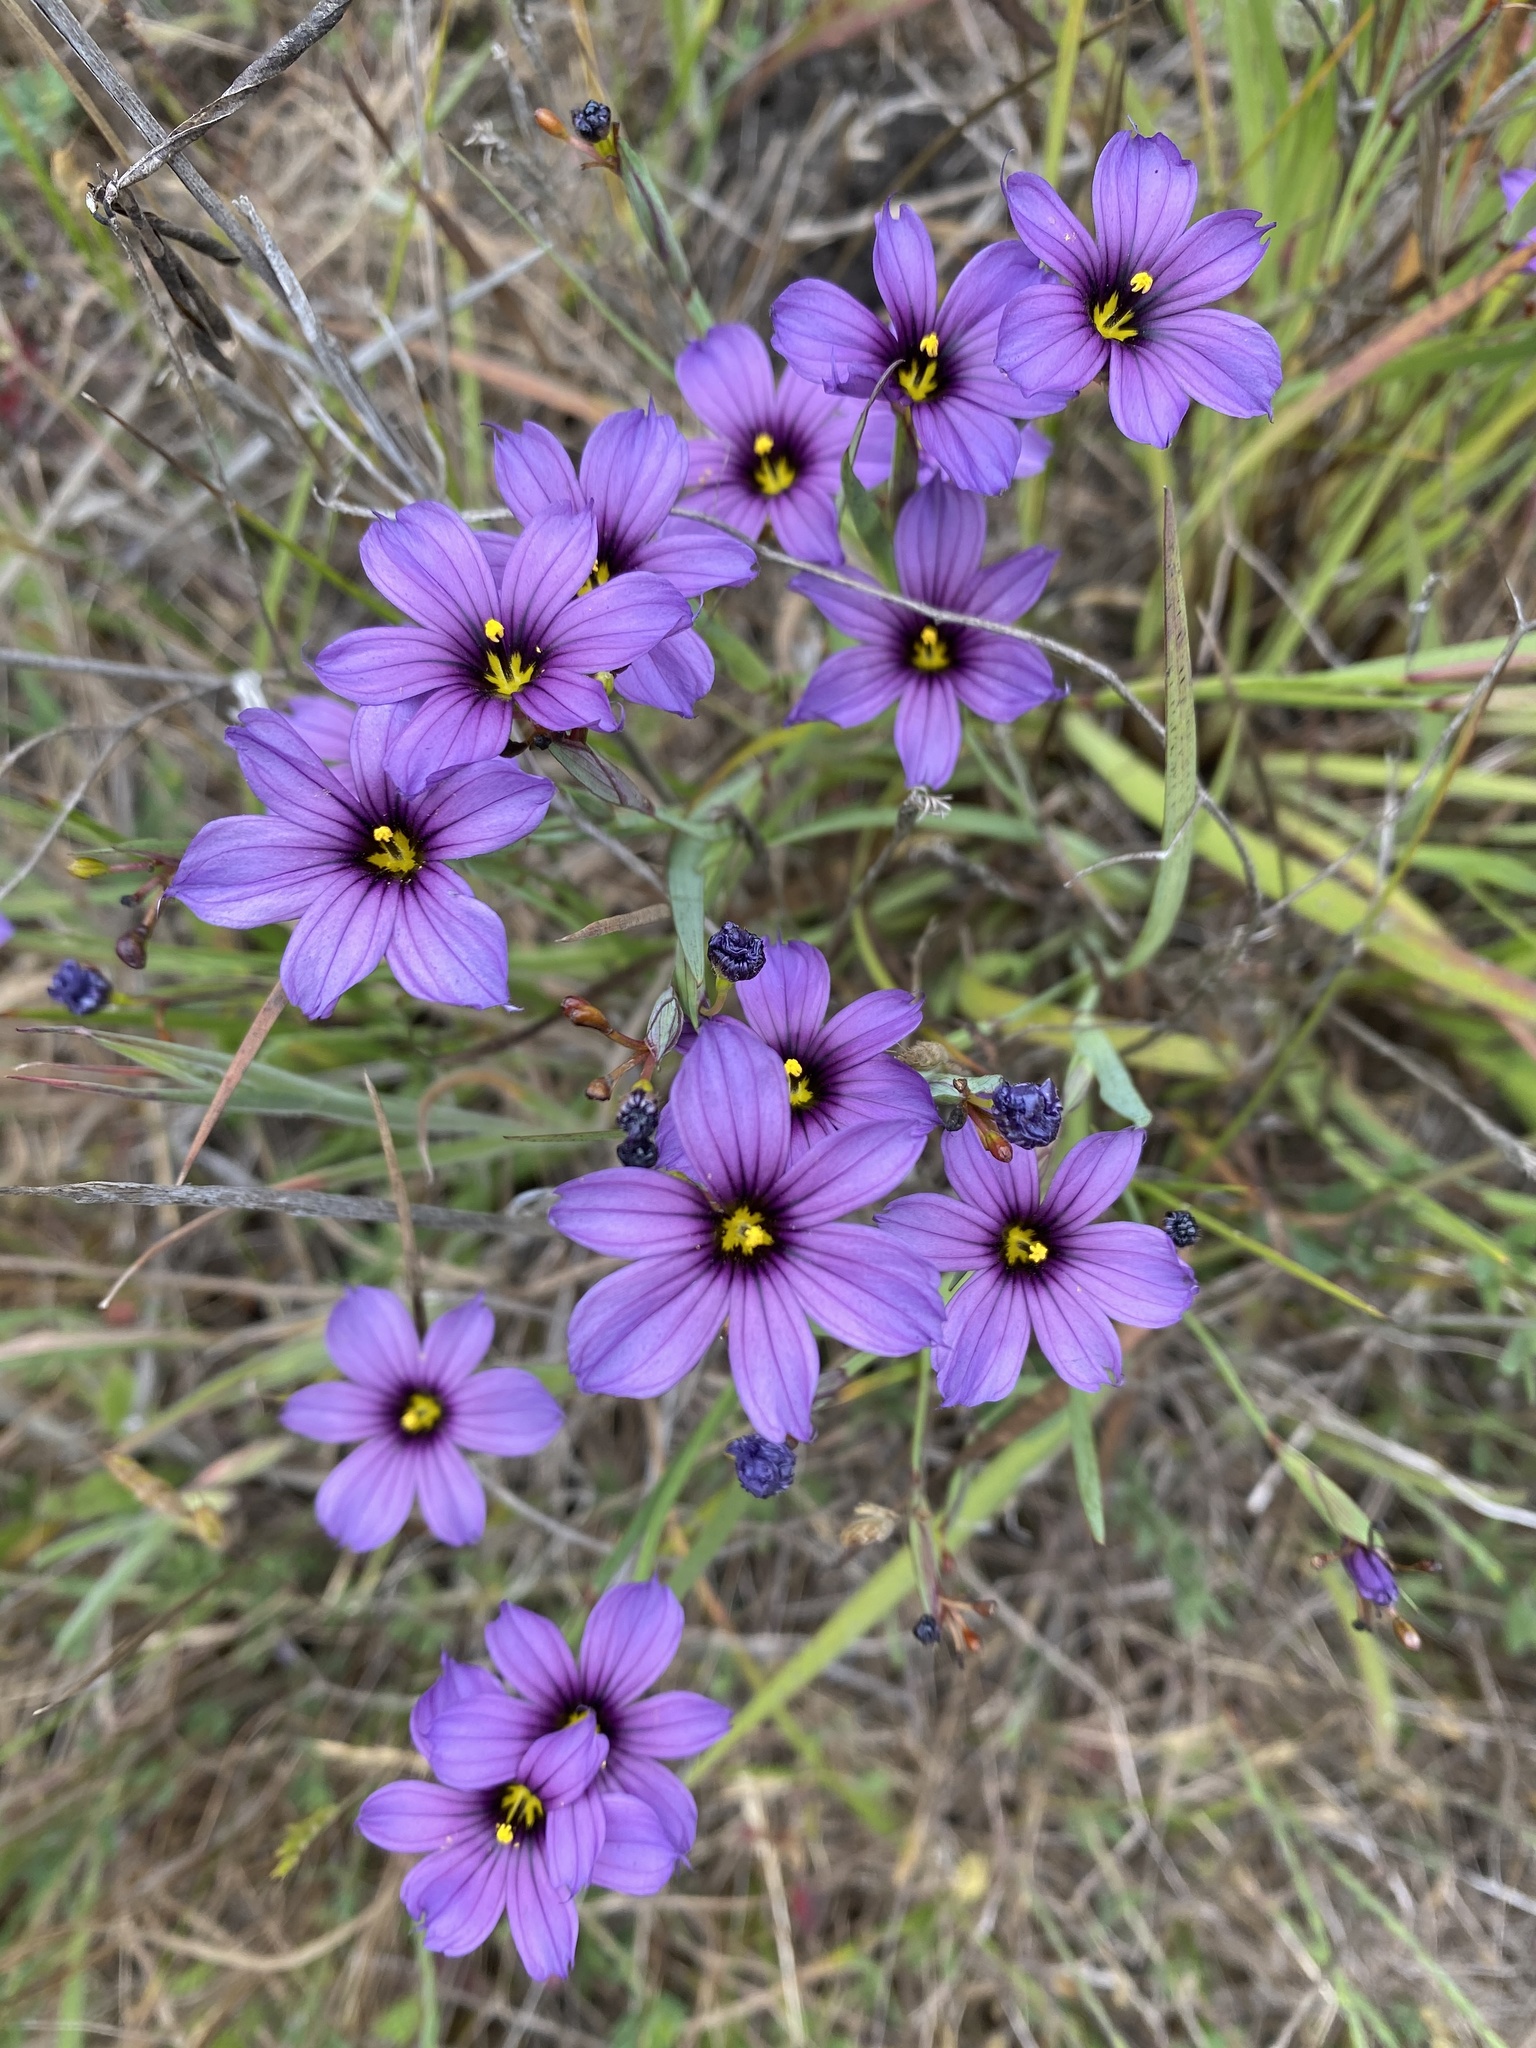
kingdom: Plantae
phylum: Tracheophyta
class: Liliopsida
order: Asparagales
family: Iridaceae
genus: Sisyrinchium
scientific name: Sisyrinchium bellum
